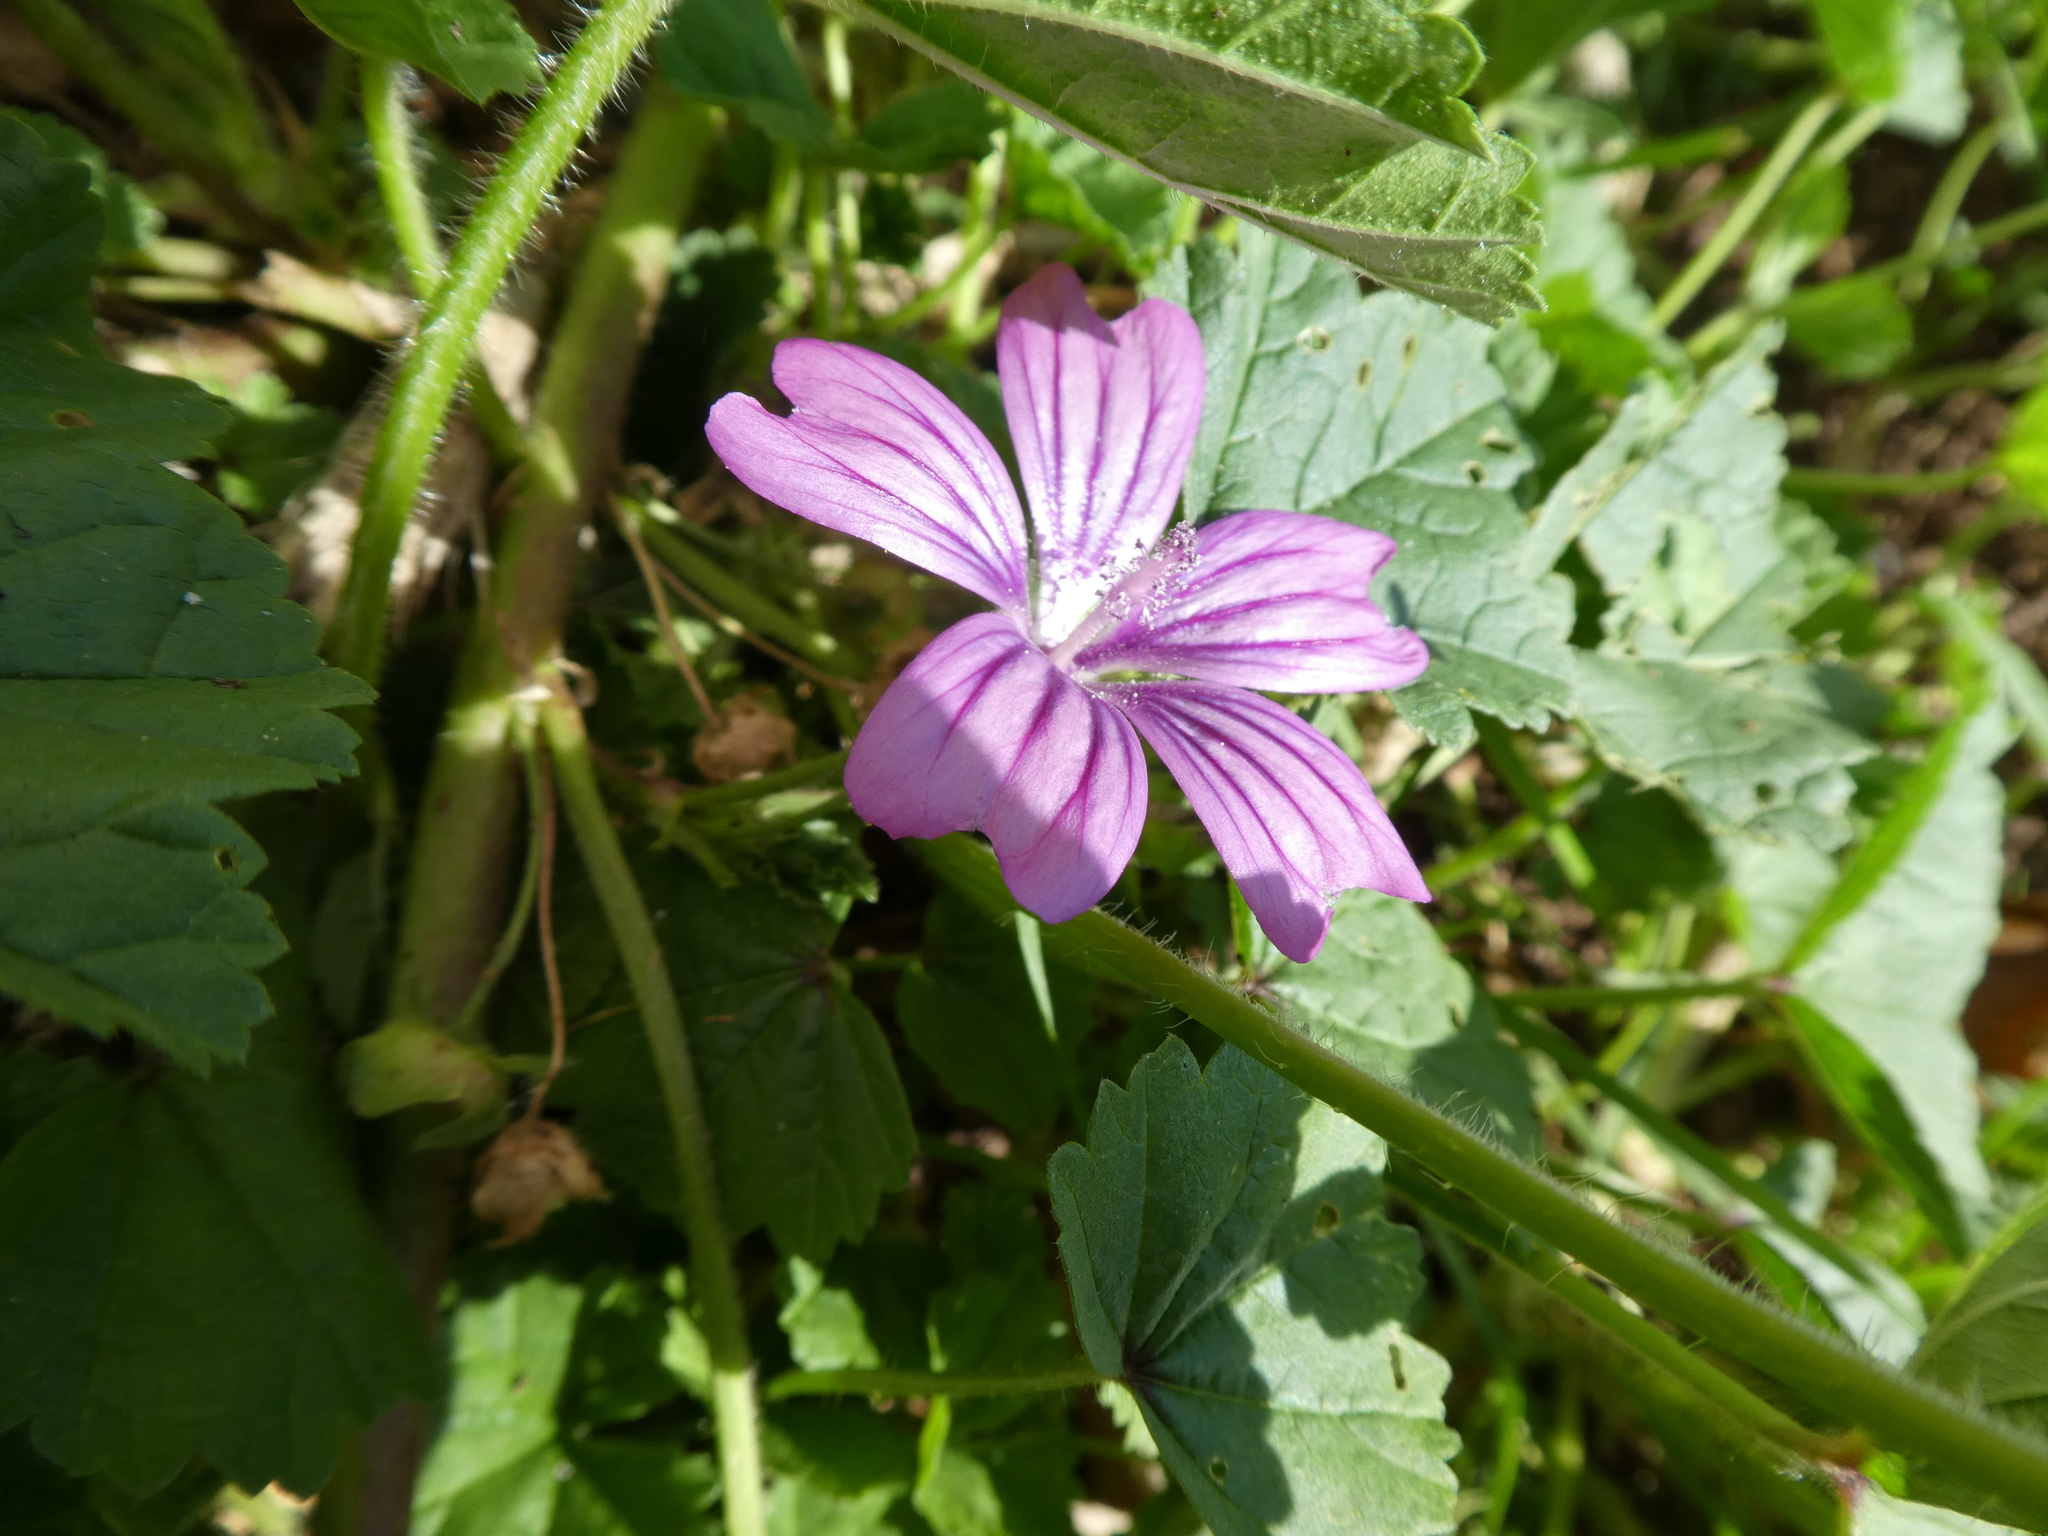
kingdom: Plantae
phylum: Tracheophyta
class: Magnoliopsida
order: Malvales
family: Malvaceae
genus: Malva
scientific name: Malva sylvestris
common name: Common mallow
